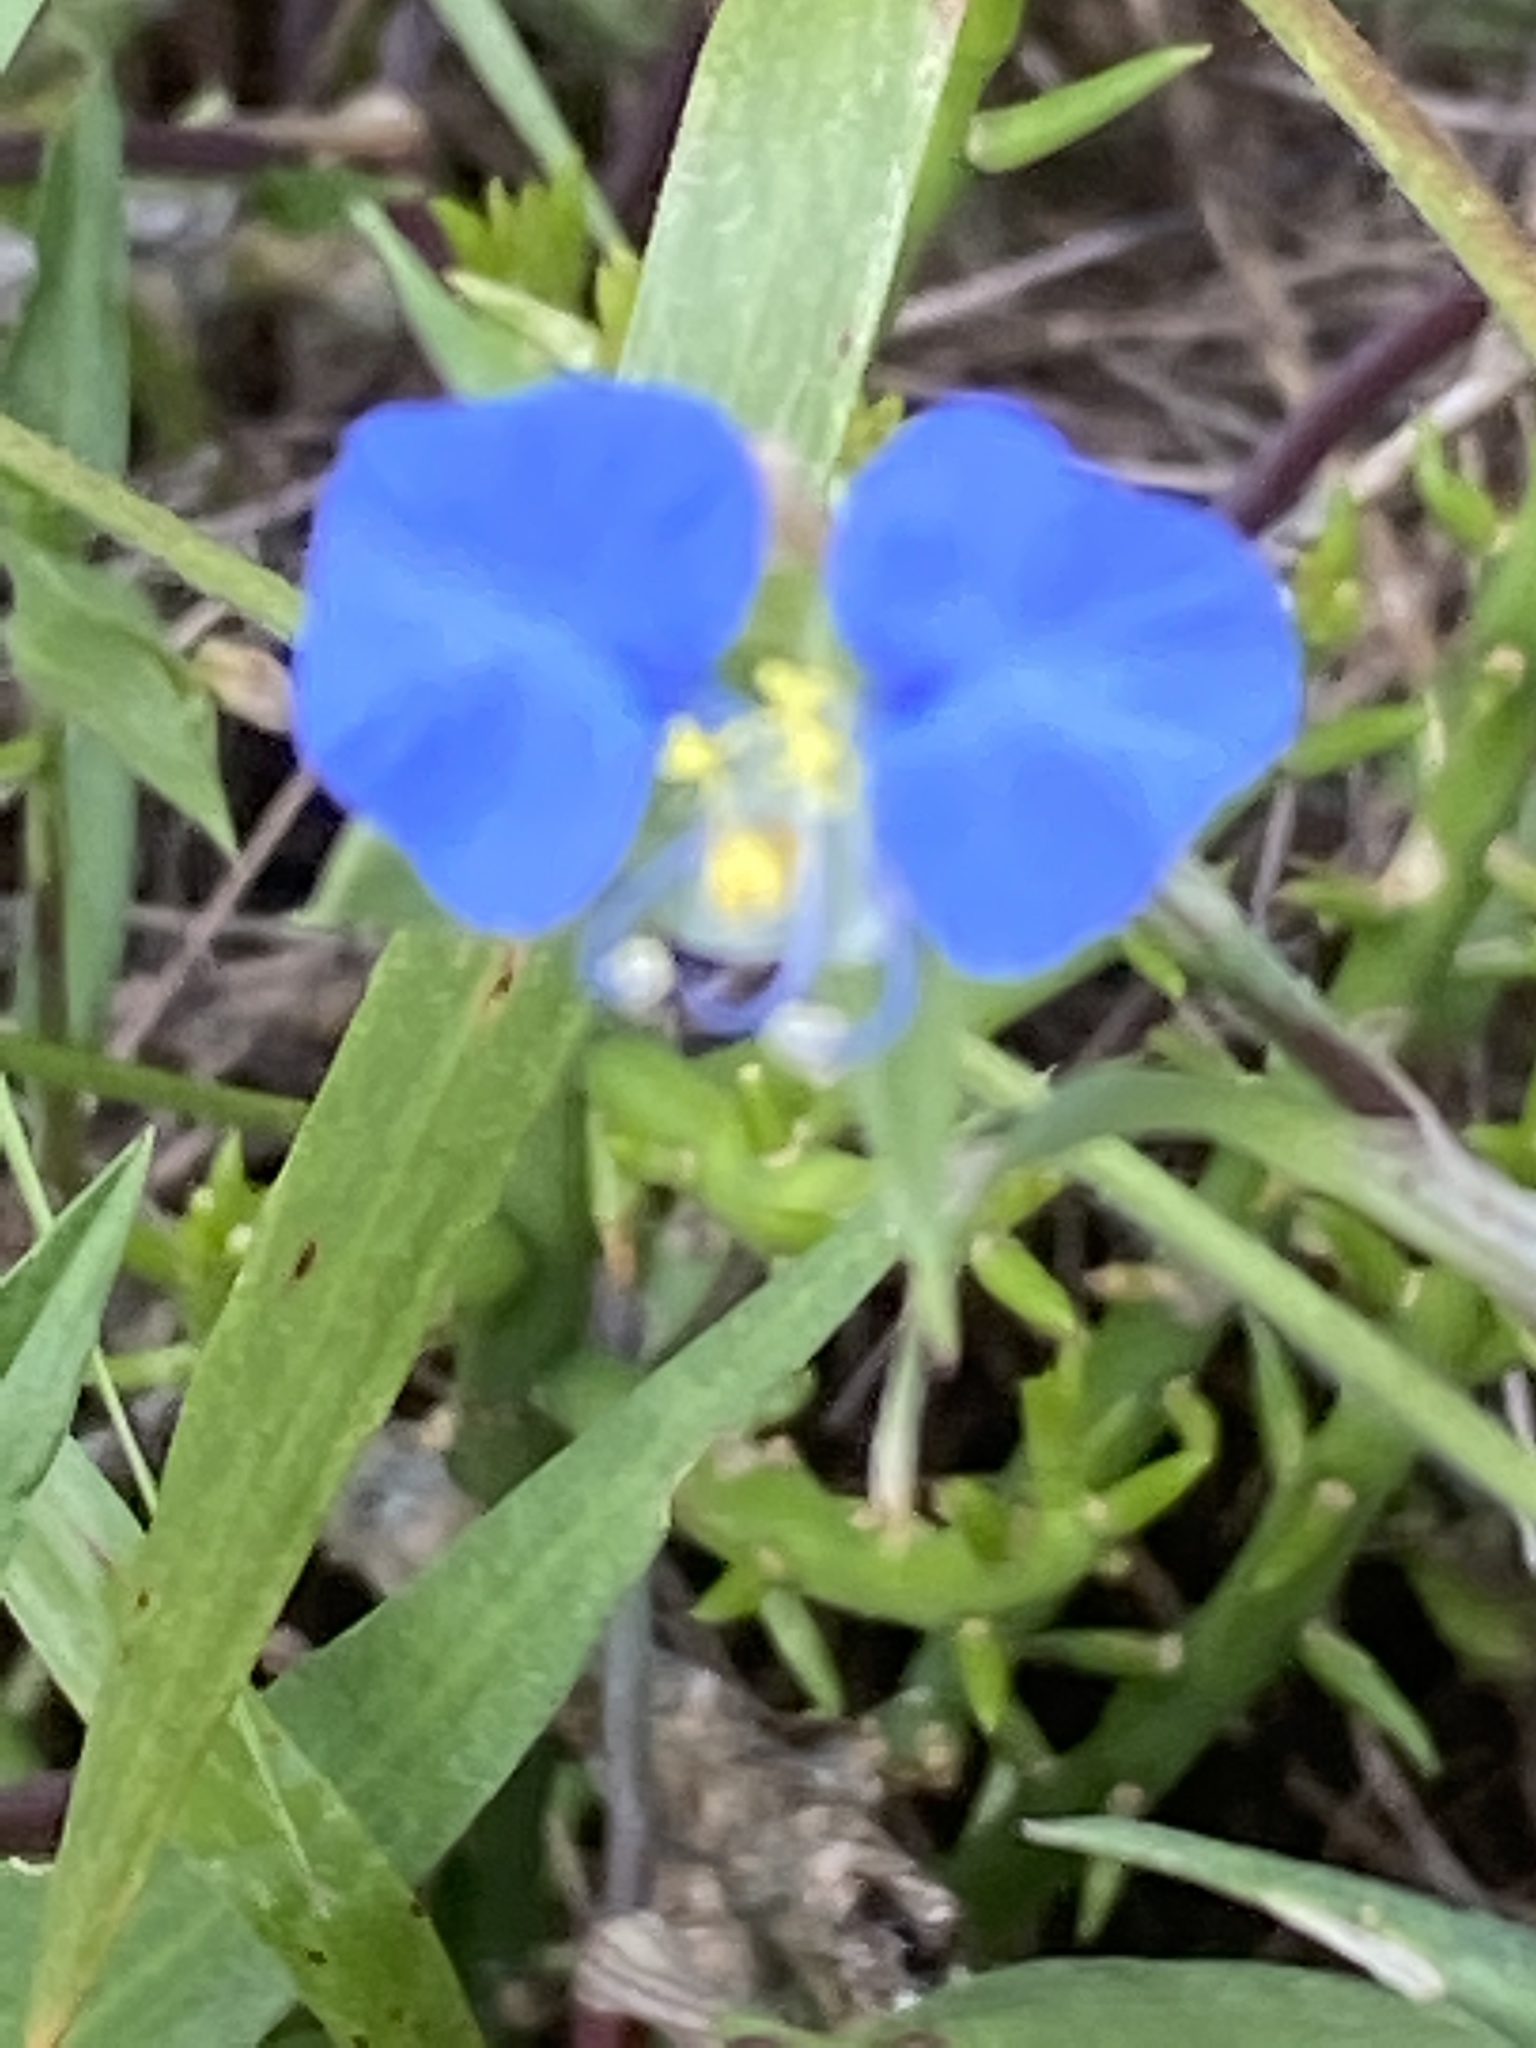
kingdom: Plantae
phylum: Tracheophyta
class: Liliopsida
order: Commelinales
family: Commelinaceae
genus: Commelina
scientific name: Commelina erecta
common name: Blousel blommetjie
